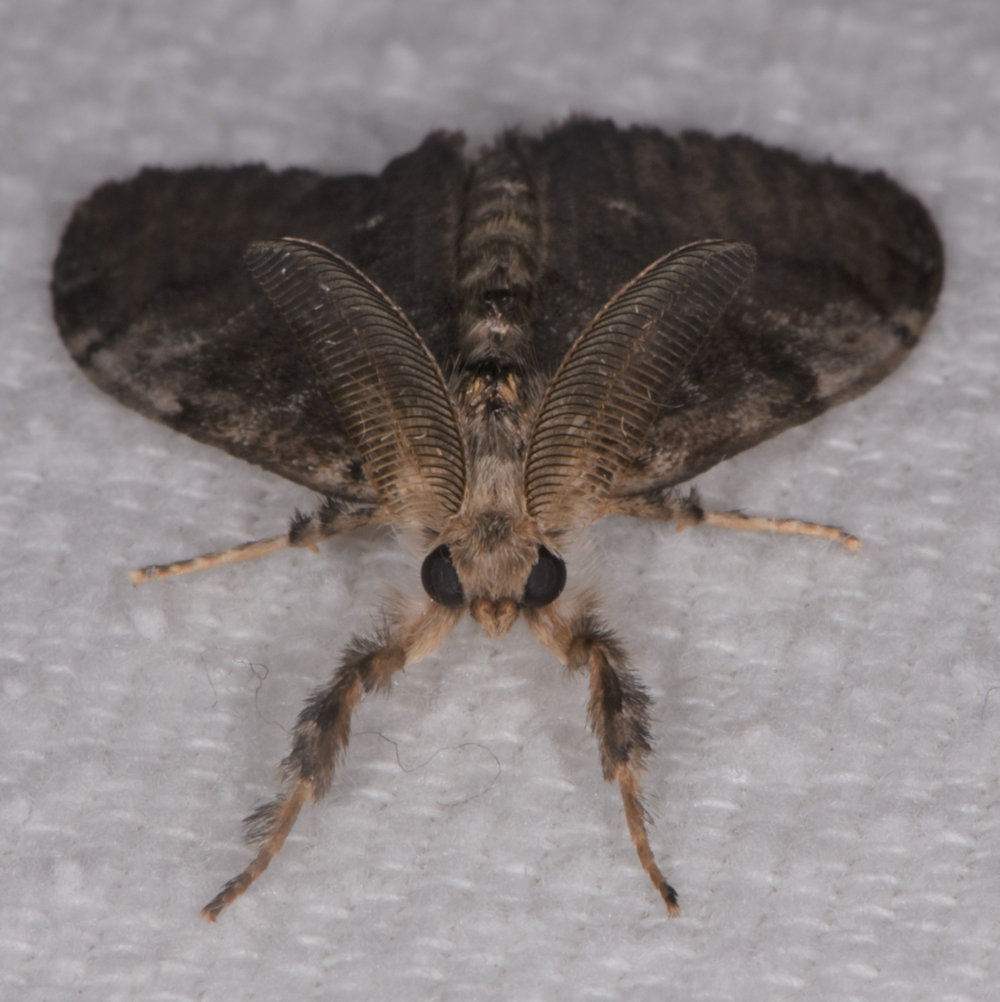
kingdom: Animalia
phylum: Arthropoda
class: Insecta
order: Lepidoptera
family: Erebidae
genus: Orgyia
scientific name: Orgyia leucostigma
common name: White-marked tussock moth
